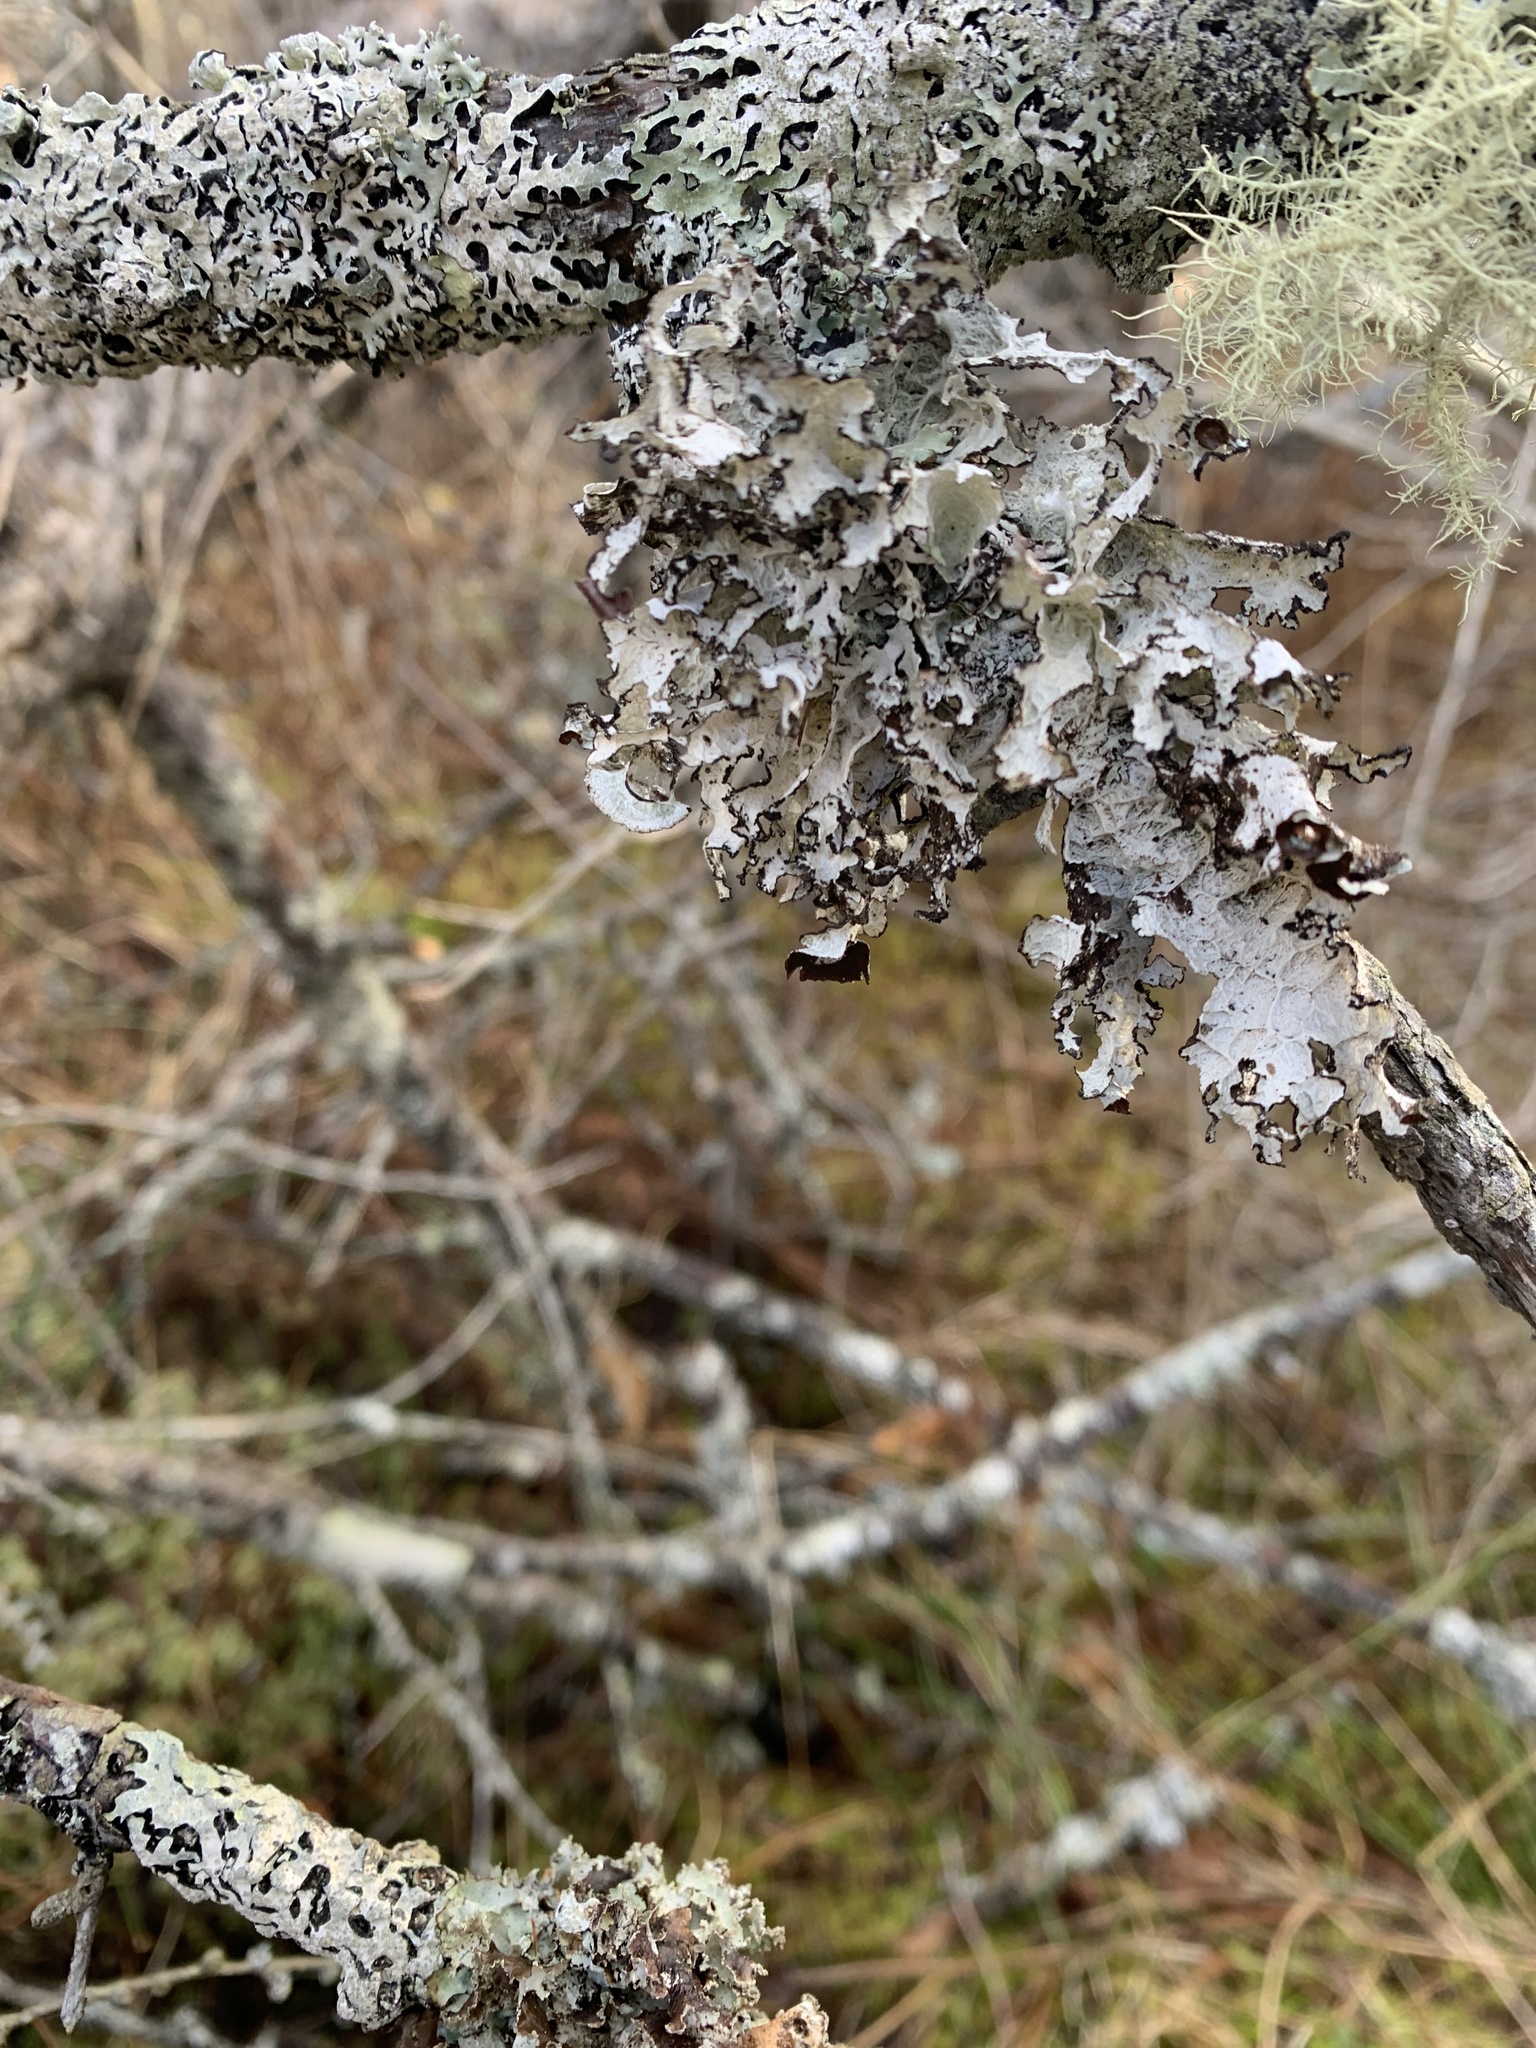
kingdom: Fungi
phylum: Ascomycota
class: Lecanoromycetes
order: Lecanorales
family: Parmeliaceae
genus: Platismatia
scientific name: Platismatia tuckermanii
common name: Crumpled rag lichen
